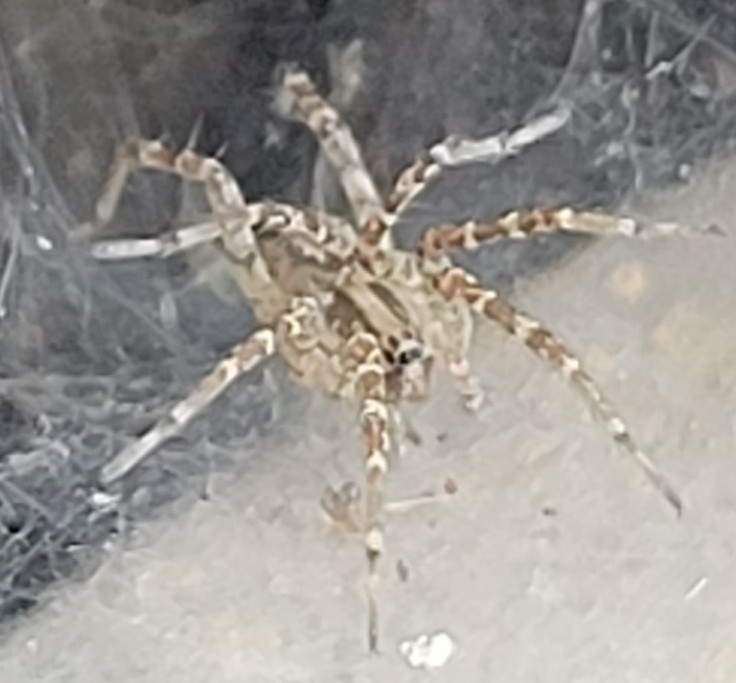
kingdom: Animalia
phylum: Arthropoda
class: Arachnida
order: Araneae
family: Agelenidae
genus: Barronopsis
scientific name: Barronopsis texana
